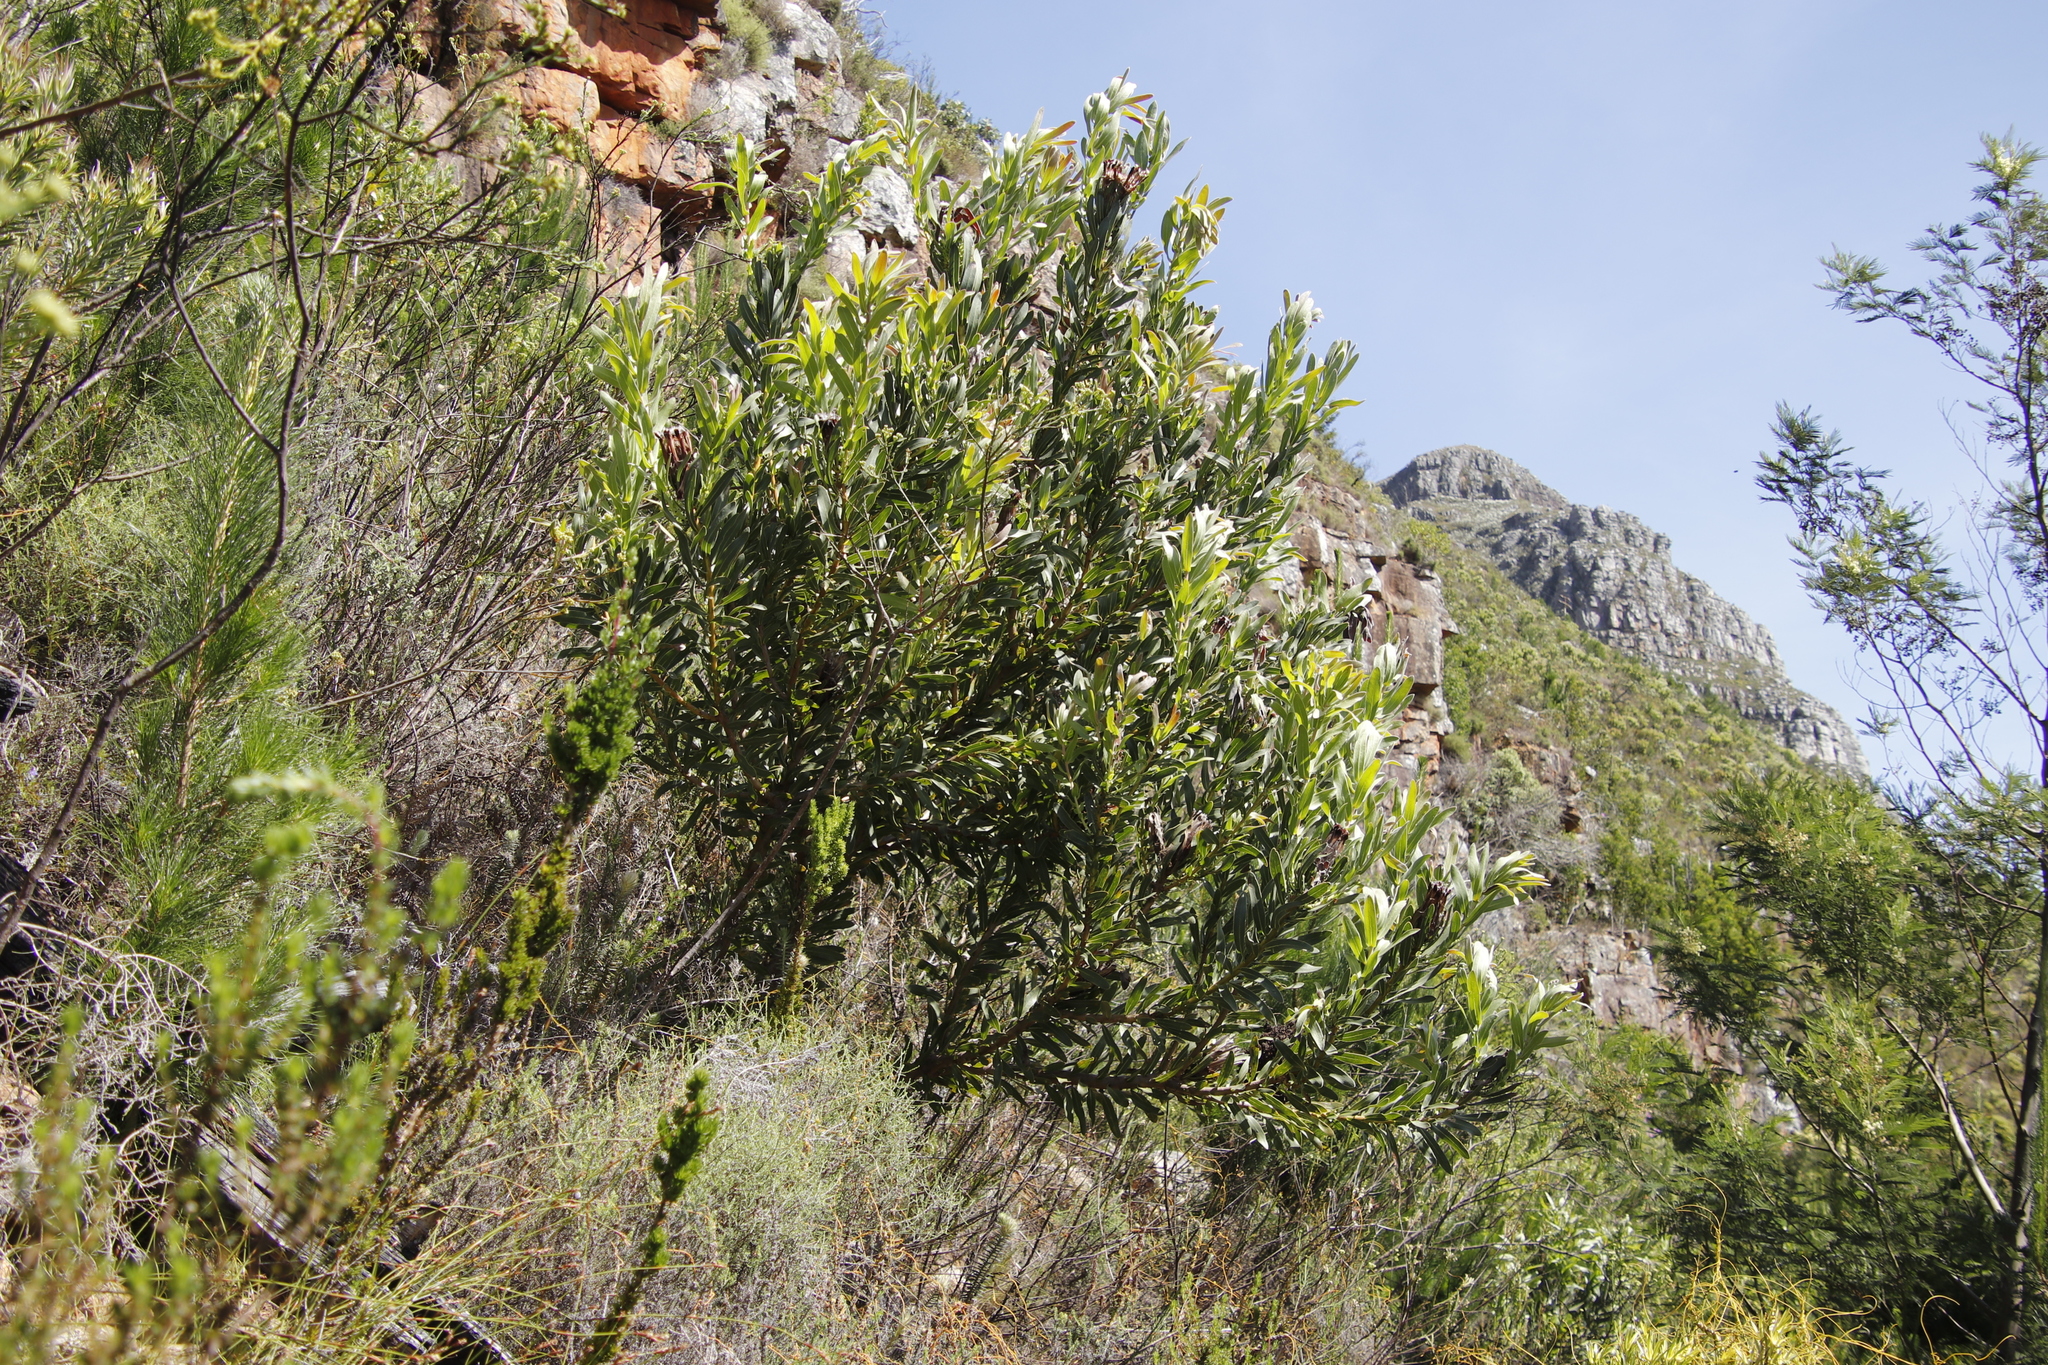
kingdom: Plantae
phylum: Tracheophyta
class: Magnoliopsida
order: Proteales
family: Proteaceae
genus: Protea
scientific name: Protea lepidocarpodendron
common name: Black-bearded protea
